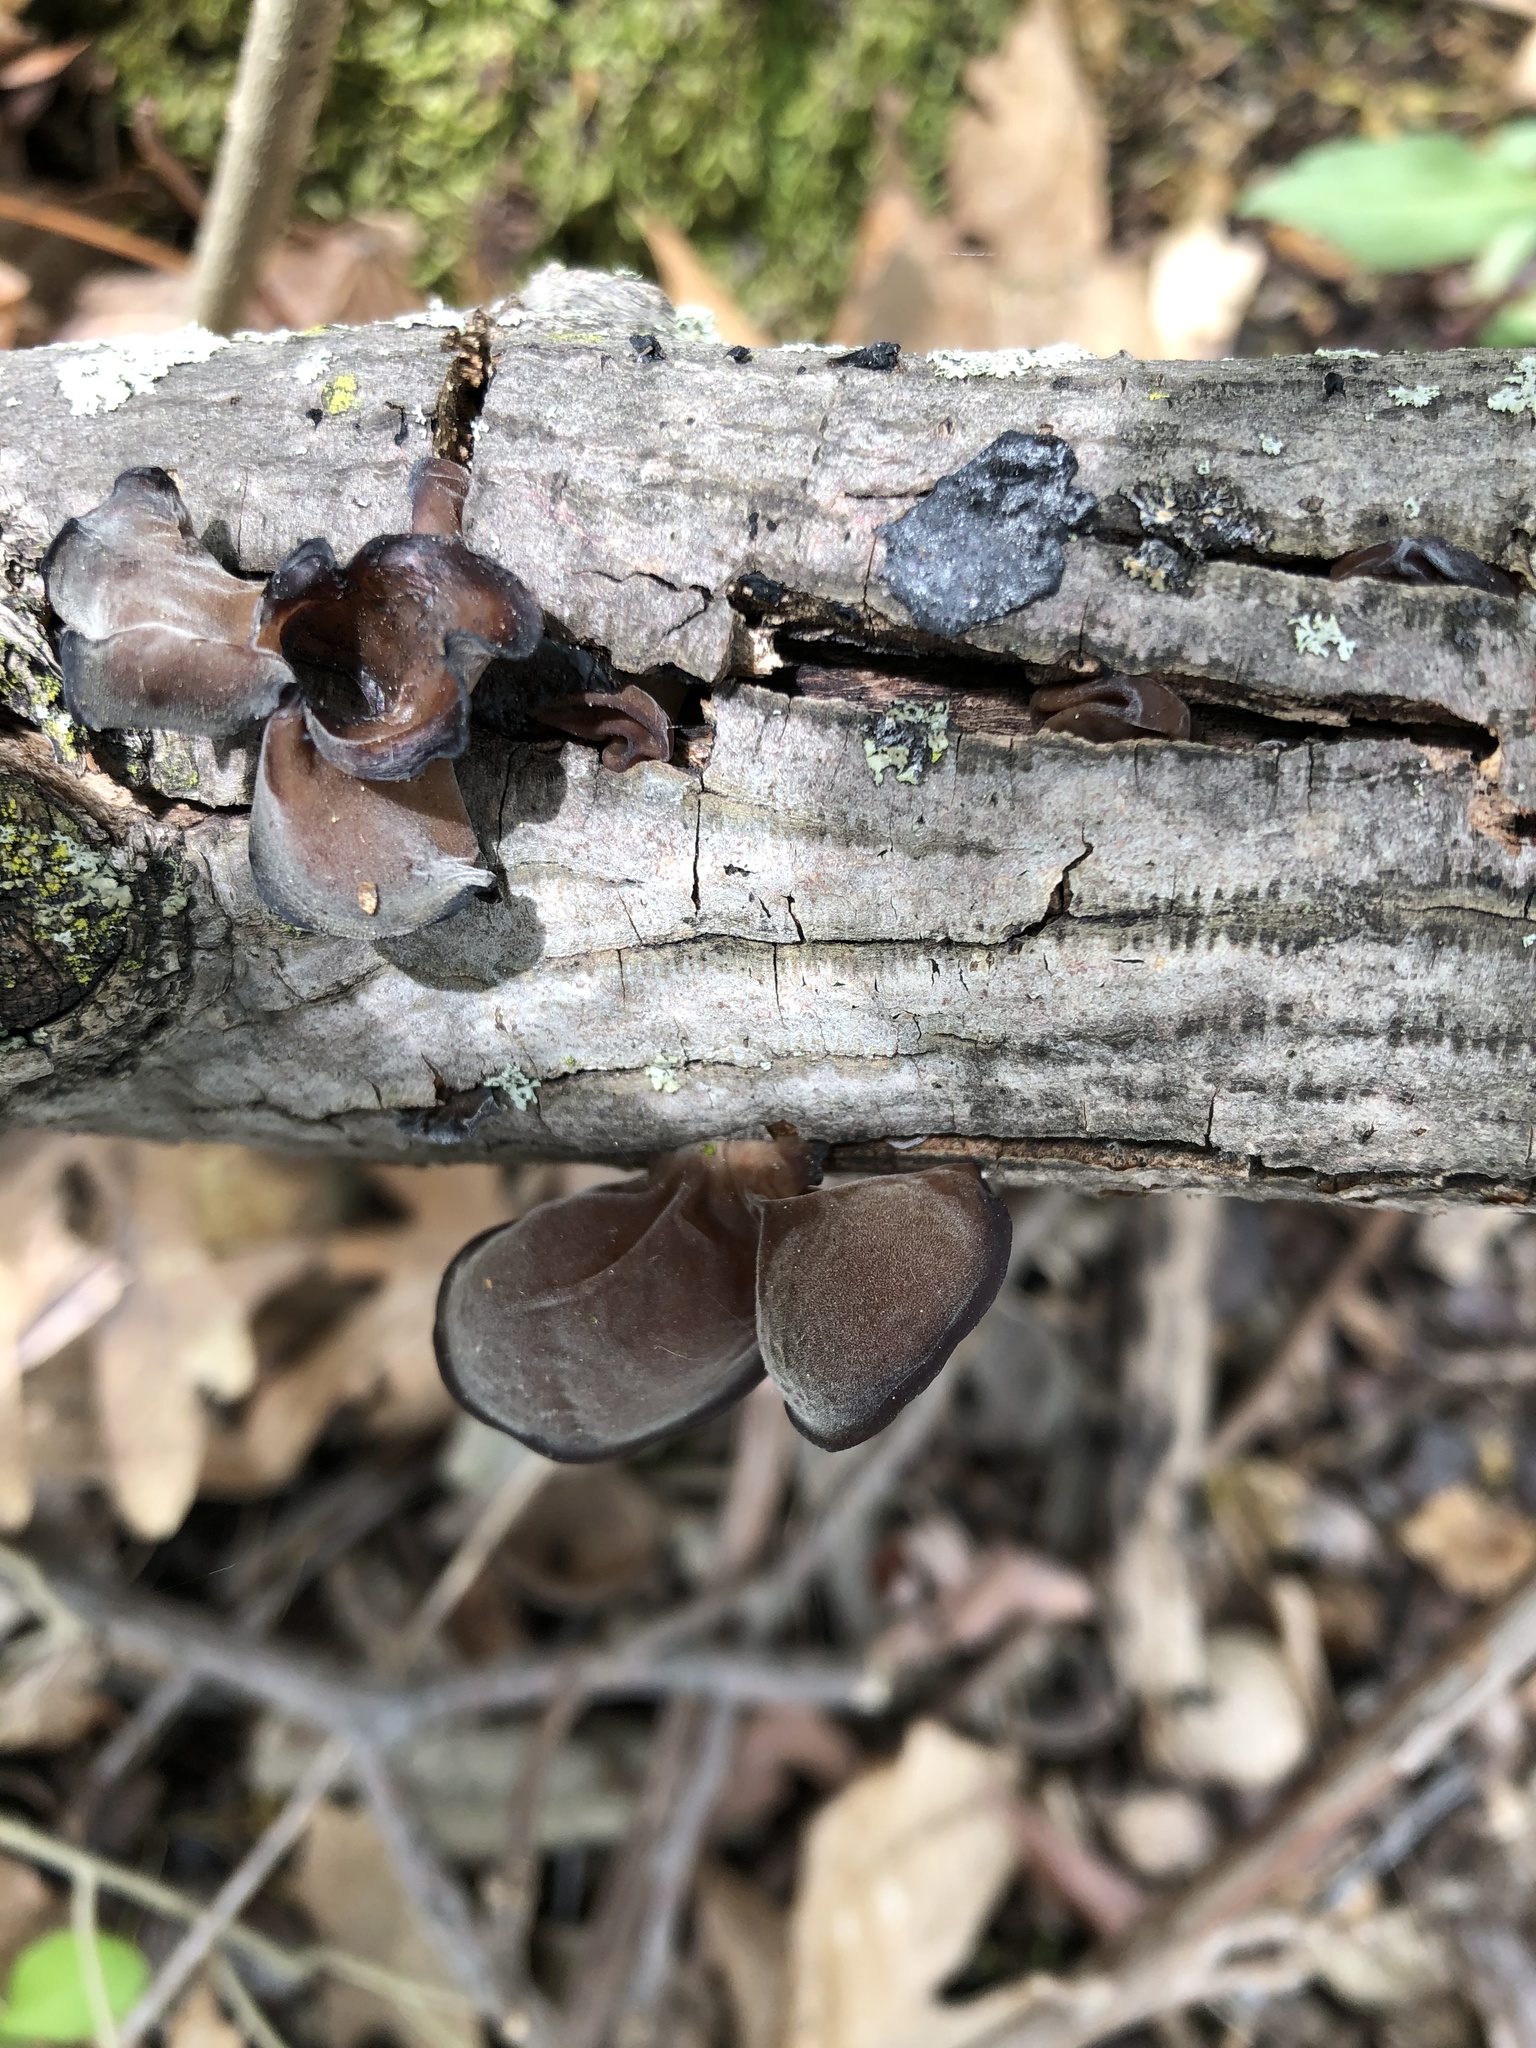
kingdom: Fungi
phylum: Basidiomycota
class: Agaricomycetes
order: Auriculariales
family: Auriculariaceae
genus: Auricularia
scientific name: Auricularia angiospermarum
